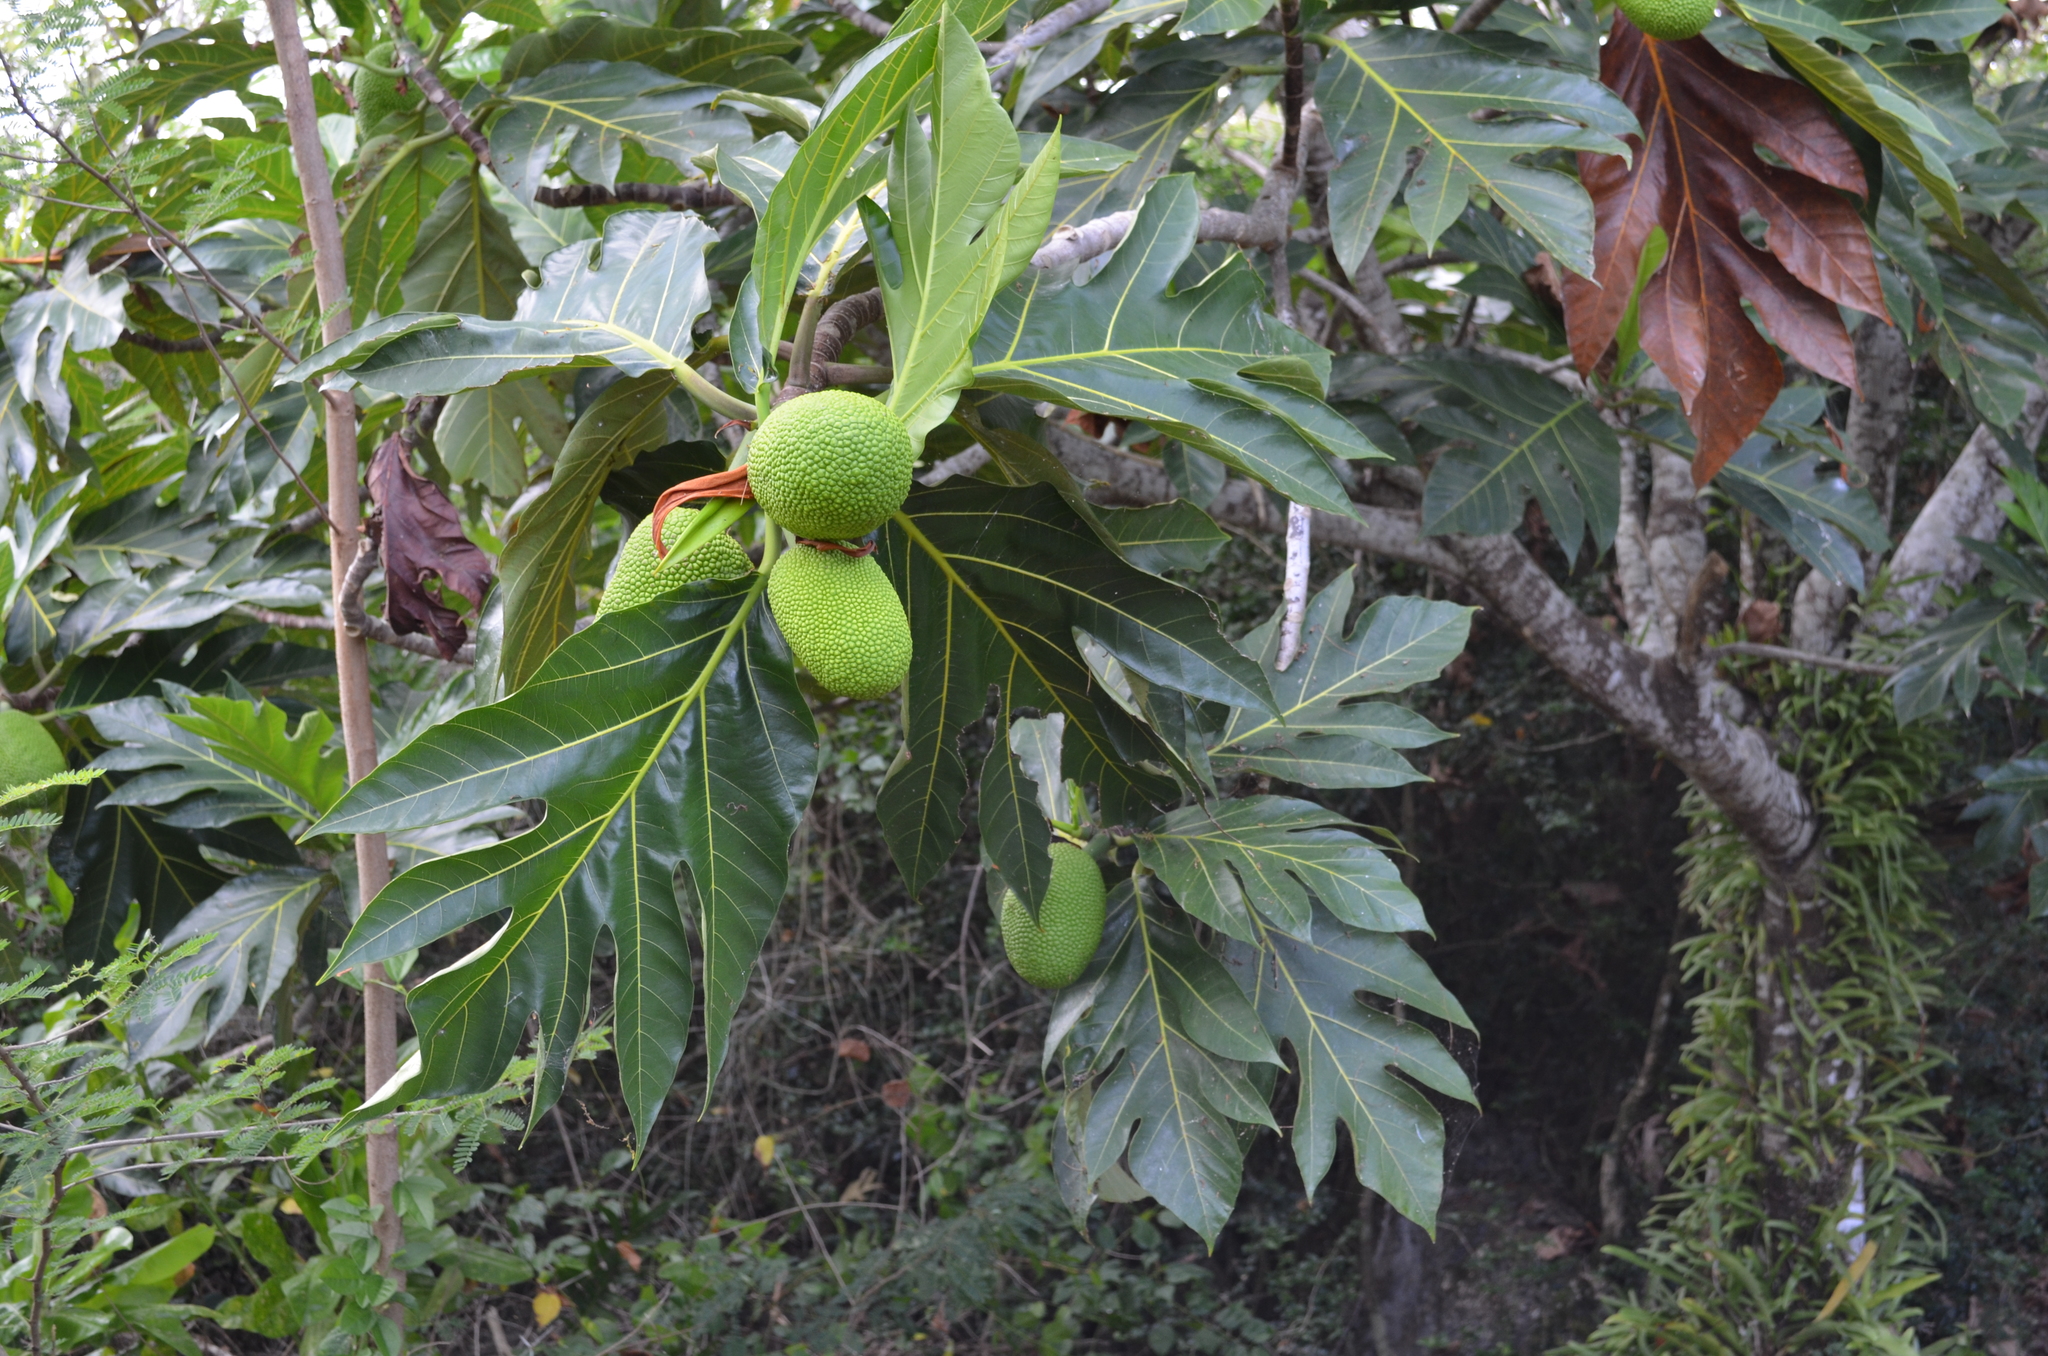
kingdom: Plantae
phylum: Tracheophyta
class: Magnoliopsida
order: Rosales
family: Moraceae
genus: Artocarpus
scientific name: Artocarpus altilis
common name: Breadfruit
